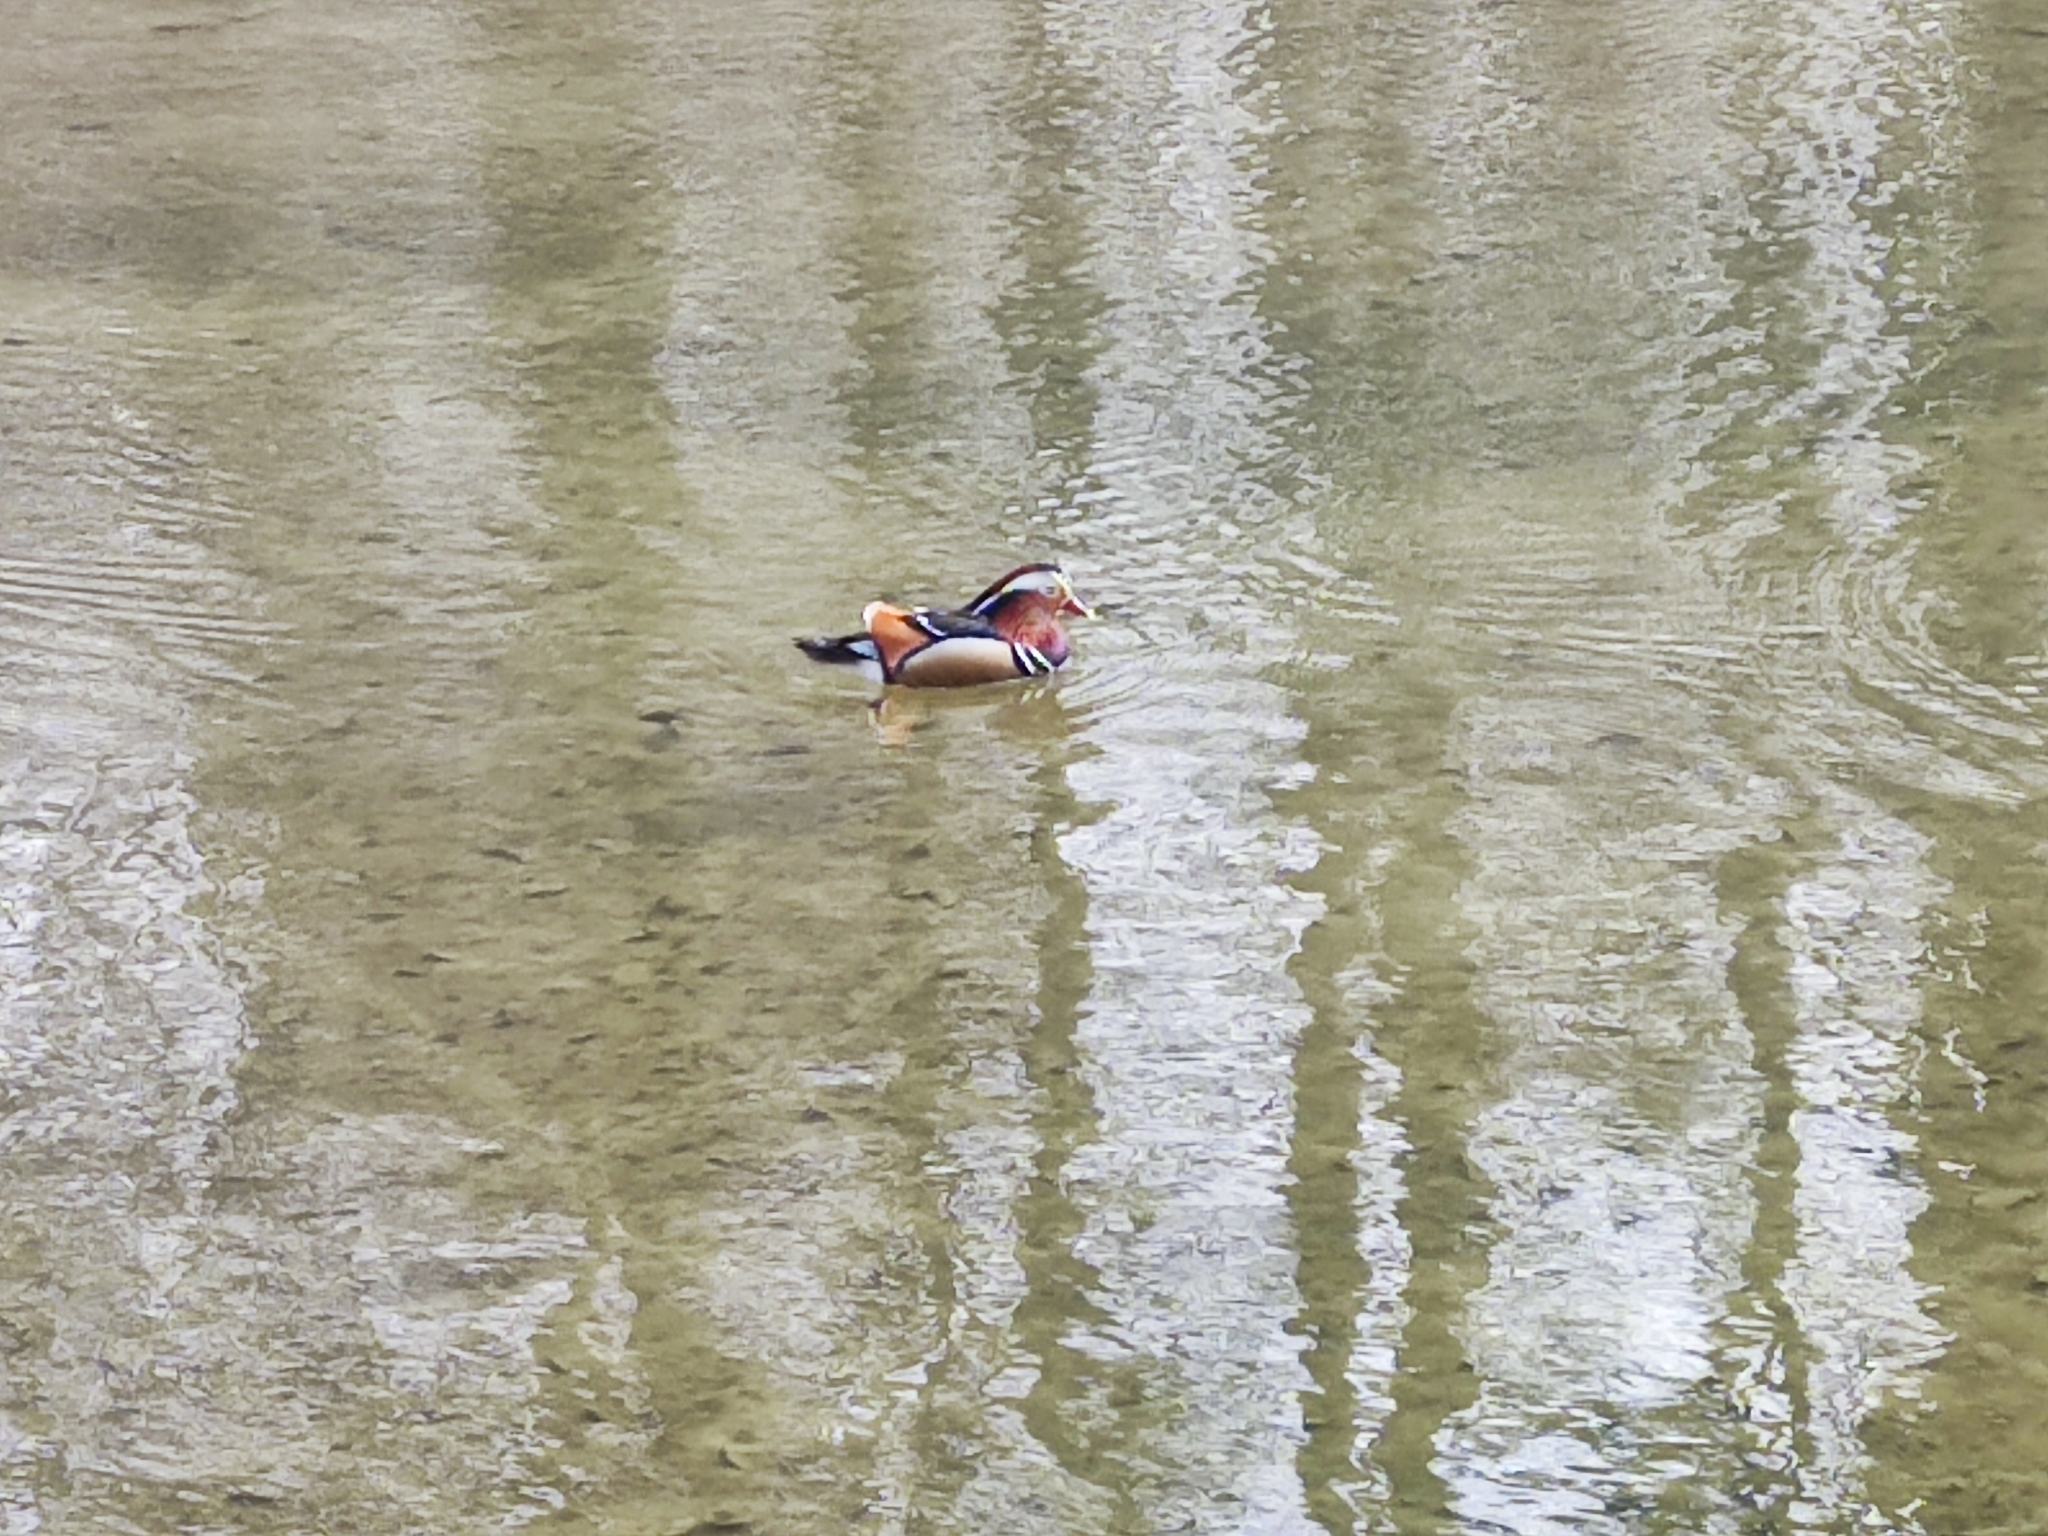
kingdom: Animalia
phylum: Chordata
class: Aves
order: Anseriformes
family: Anatidae
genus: Aix
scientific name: Aix galericulata
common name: Mandarin duck
